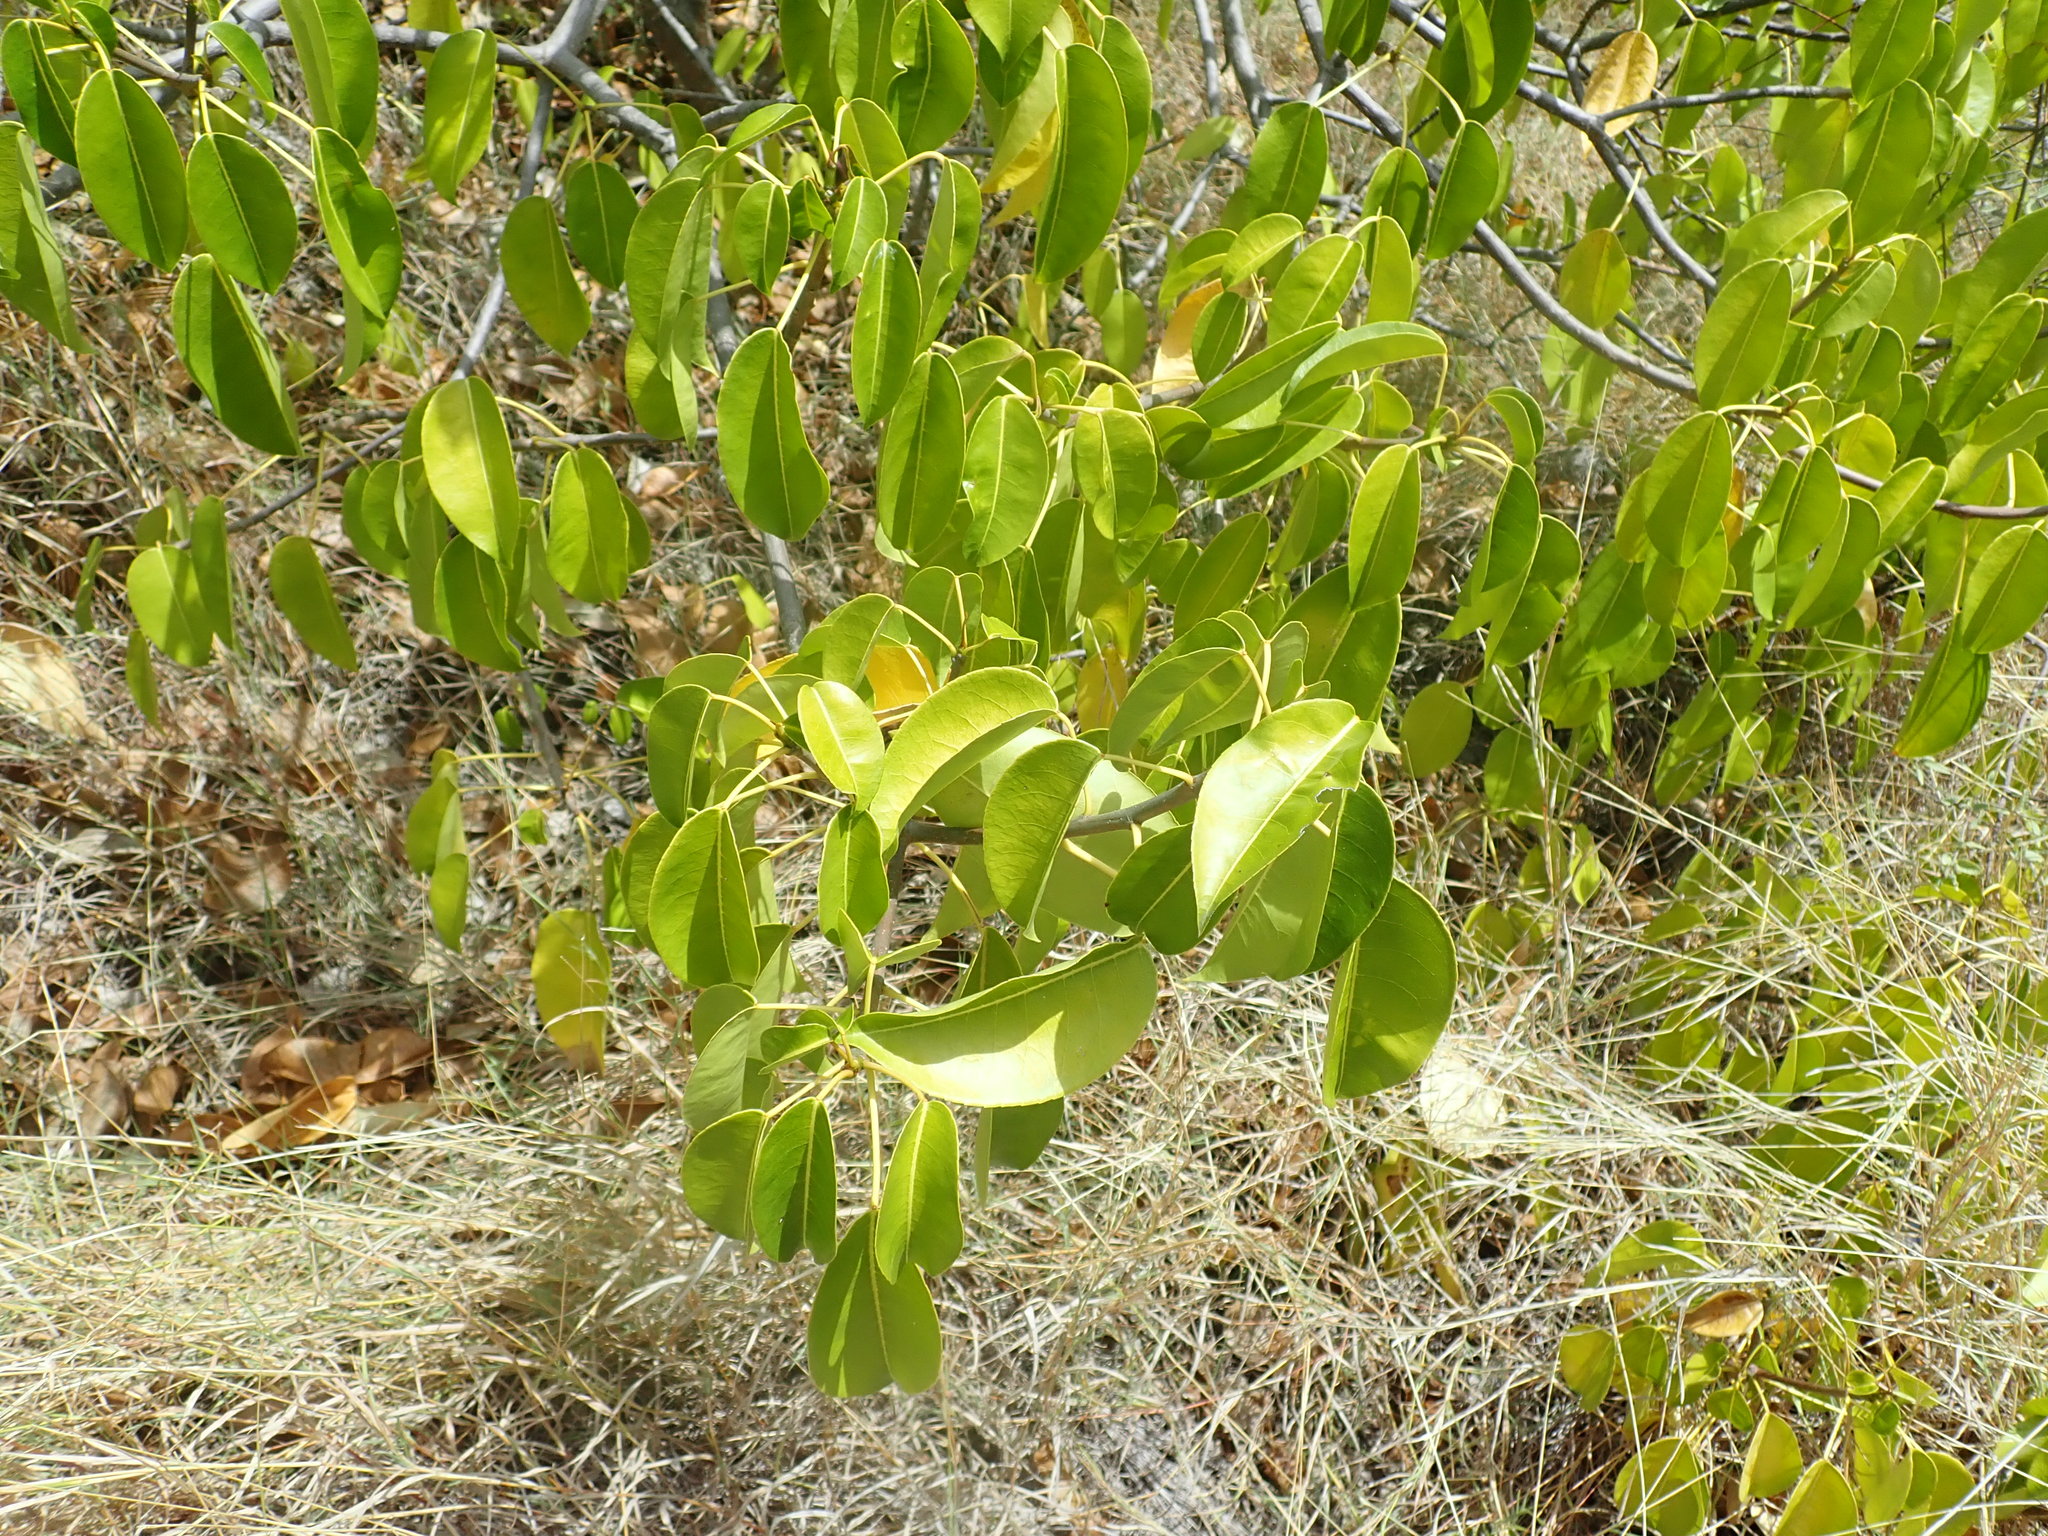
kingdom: Plantae
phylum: Tracheophyta
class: Magnoliopsida
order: Malpighiales
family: Euphorbiaceae
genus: Hippomane
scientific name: Hippomane mancinella
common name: Manchineel
